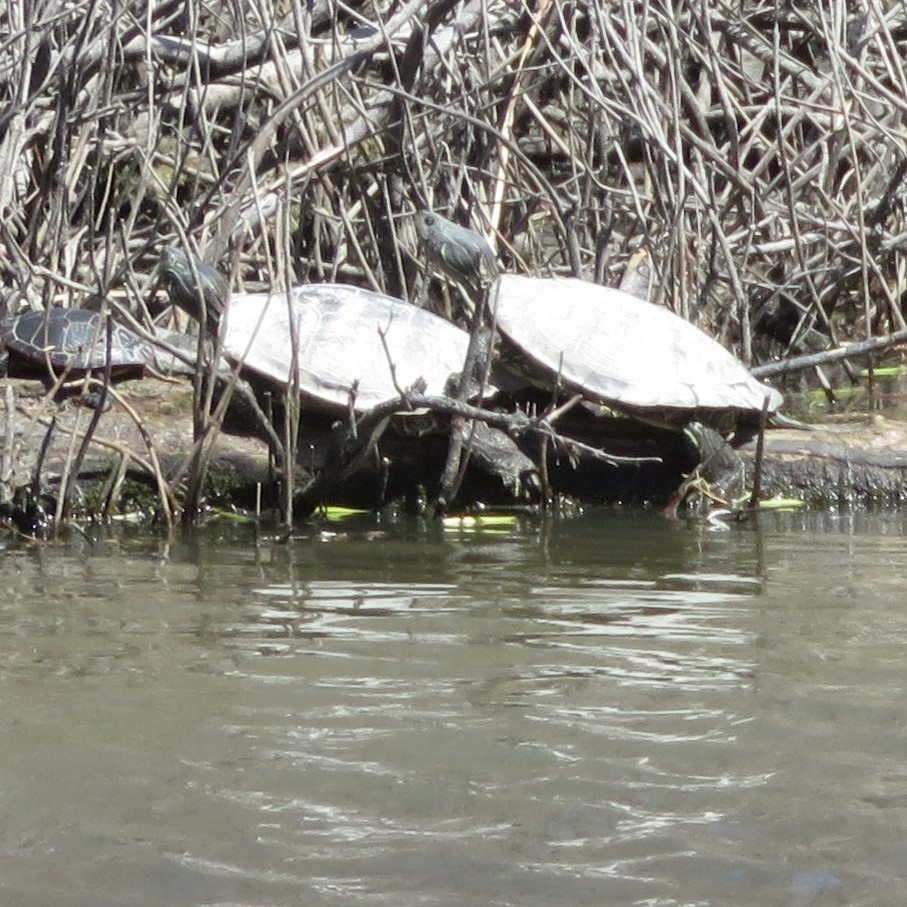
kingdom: Animalia
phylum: Chordata
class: Testudines
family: Emydidae
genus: Graptemys
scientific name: Graptemys geographica
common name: Common map turtle
